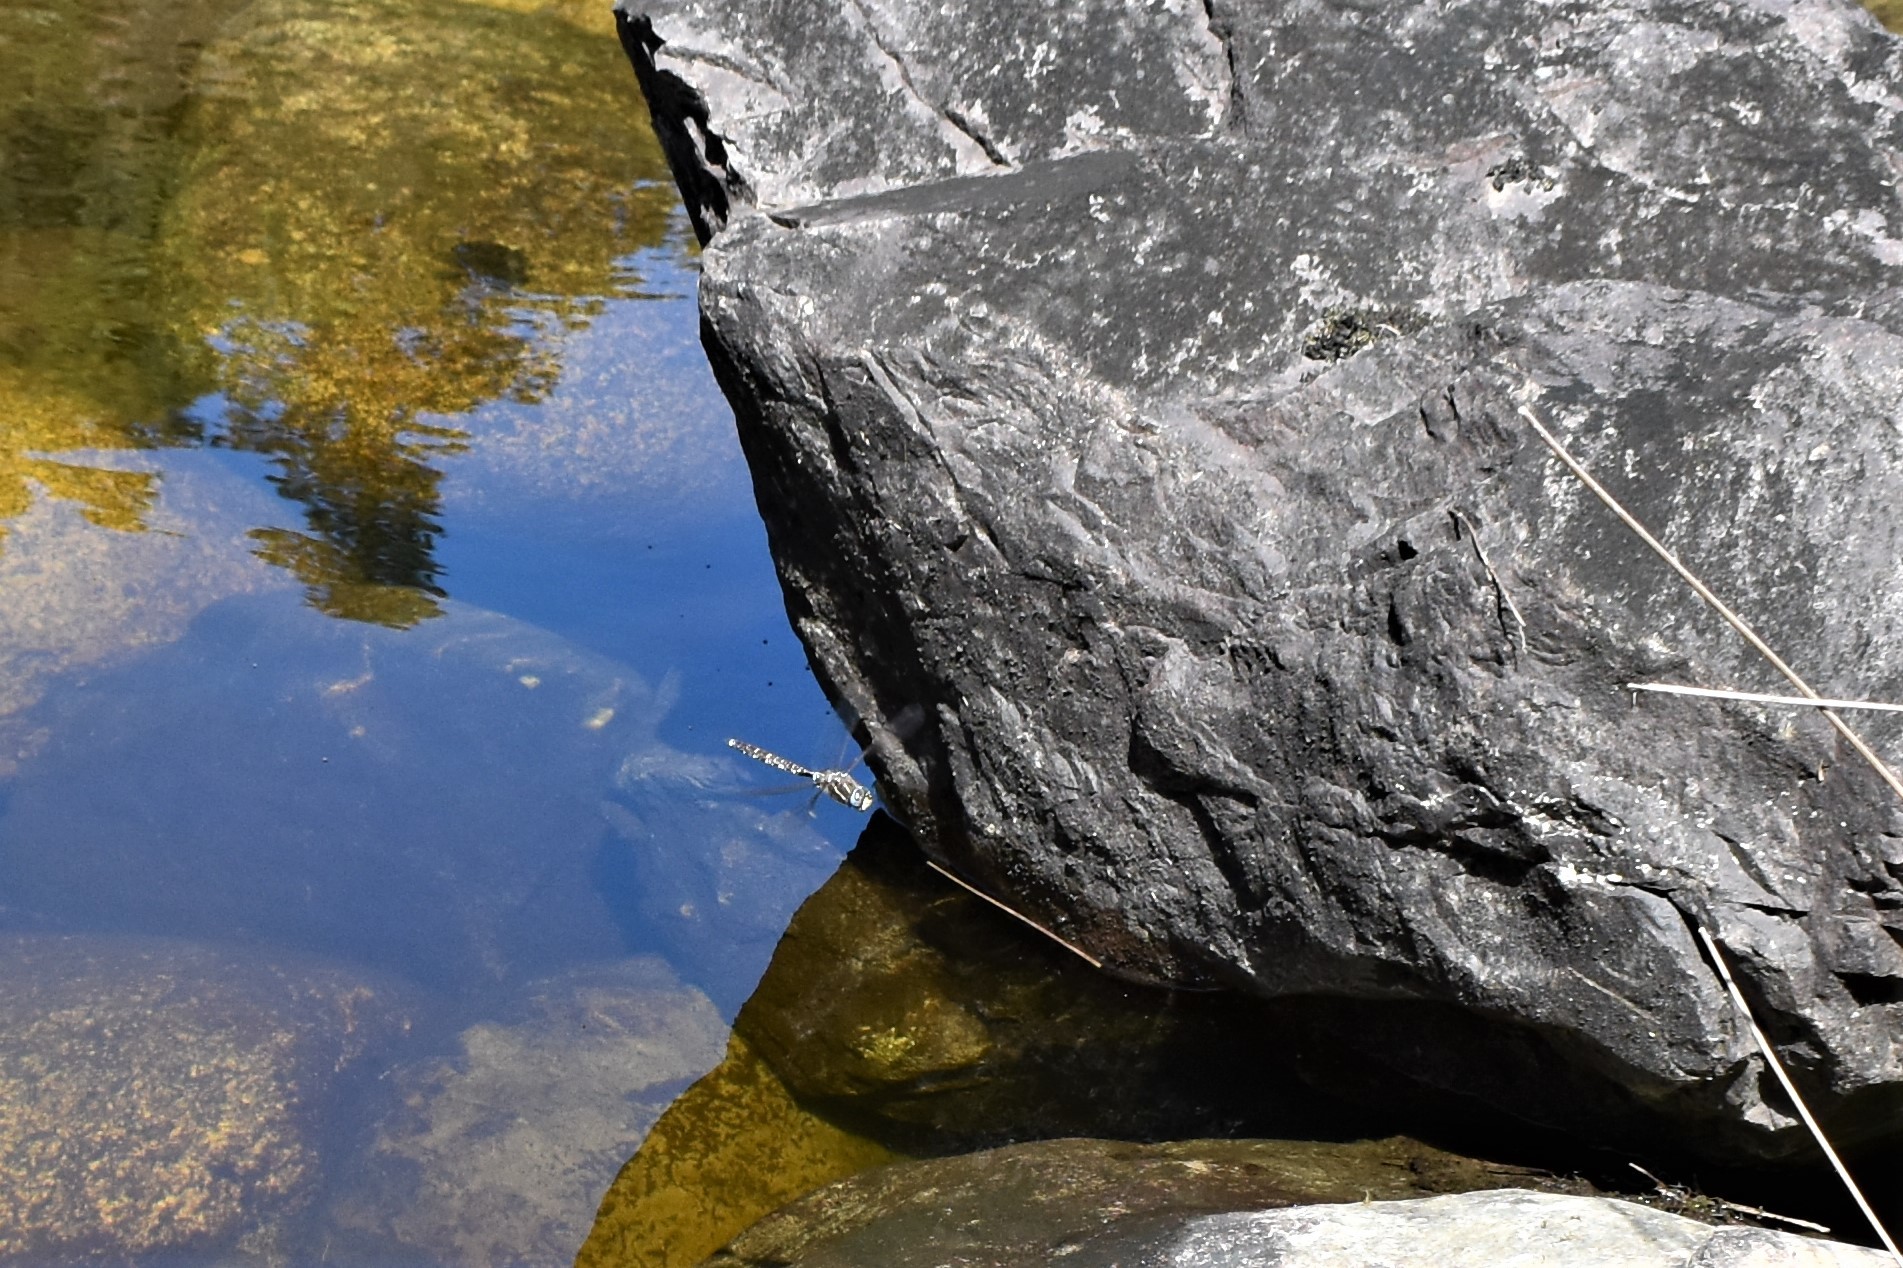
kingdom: Animalia
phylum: Arthropoda
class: Insecta
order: Odonata
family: Aeshnidae
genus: Aeshna
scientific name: Aeshna brevistyla
